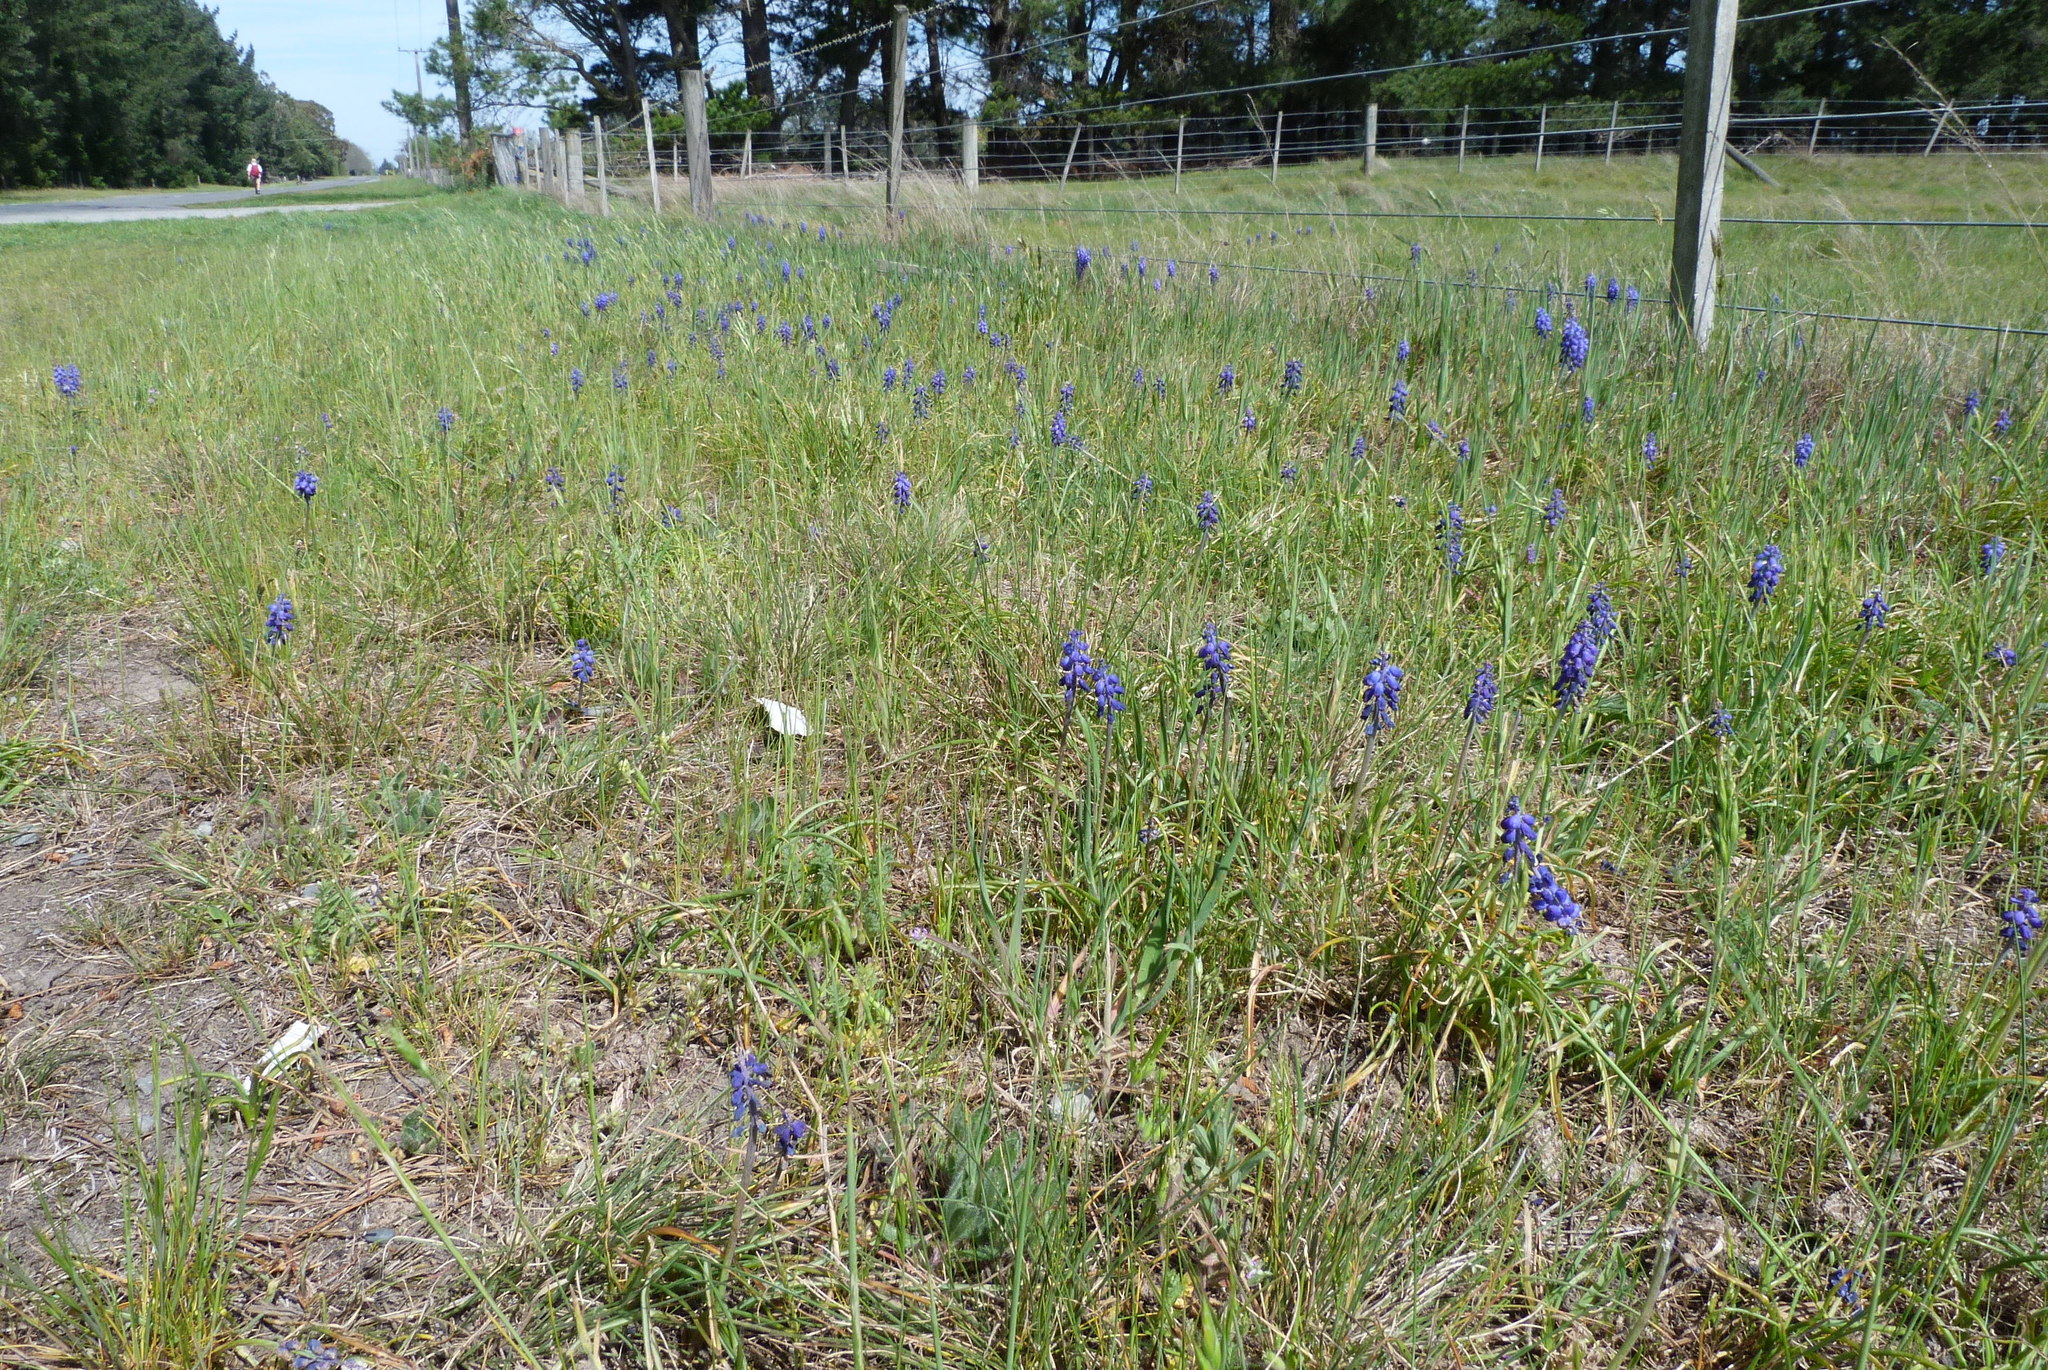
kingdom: Plantae
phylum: Tracheophyta
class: Liliopsida
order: Asparagales
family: Asparagaceae
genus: Muscari
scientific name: Muscari armeniacum
